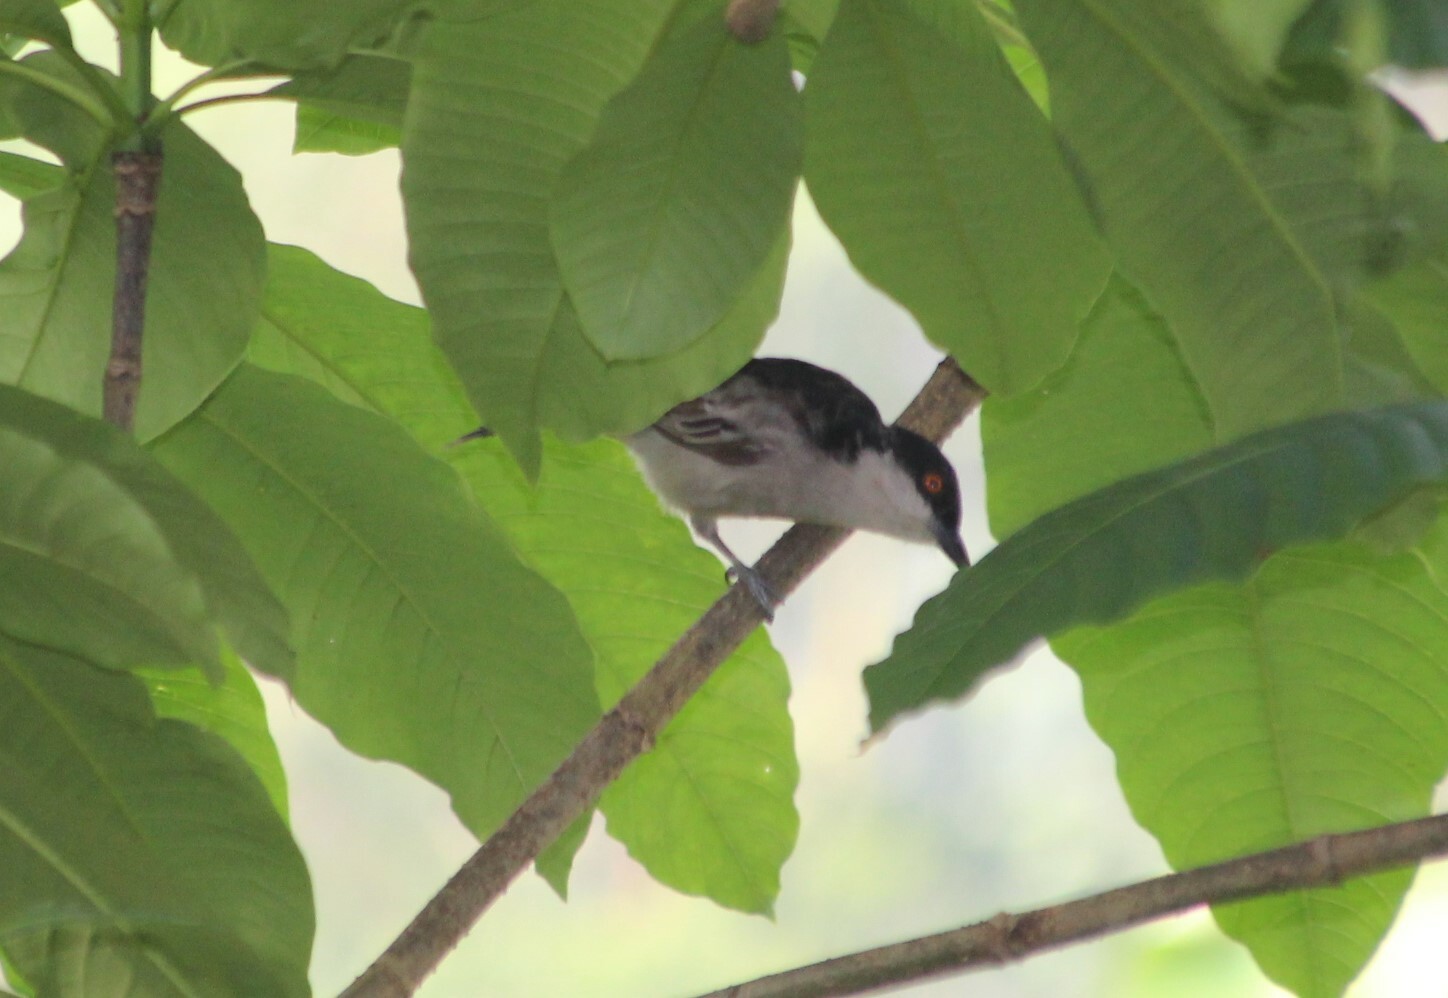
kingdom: Animalia
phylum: Chordata
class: Aves
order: Passeriformes
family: Malaconotidae
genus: Dryoscopus
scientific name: Dryoscopus gambensis
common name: Northern puffback
